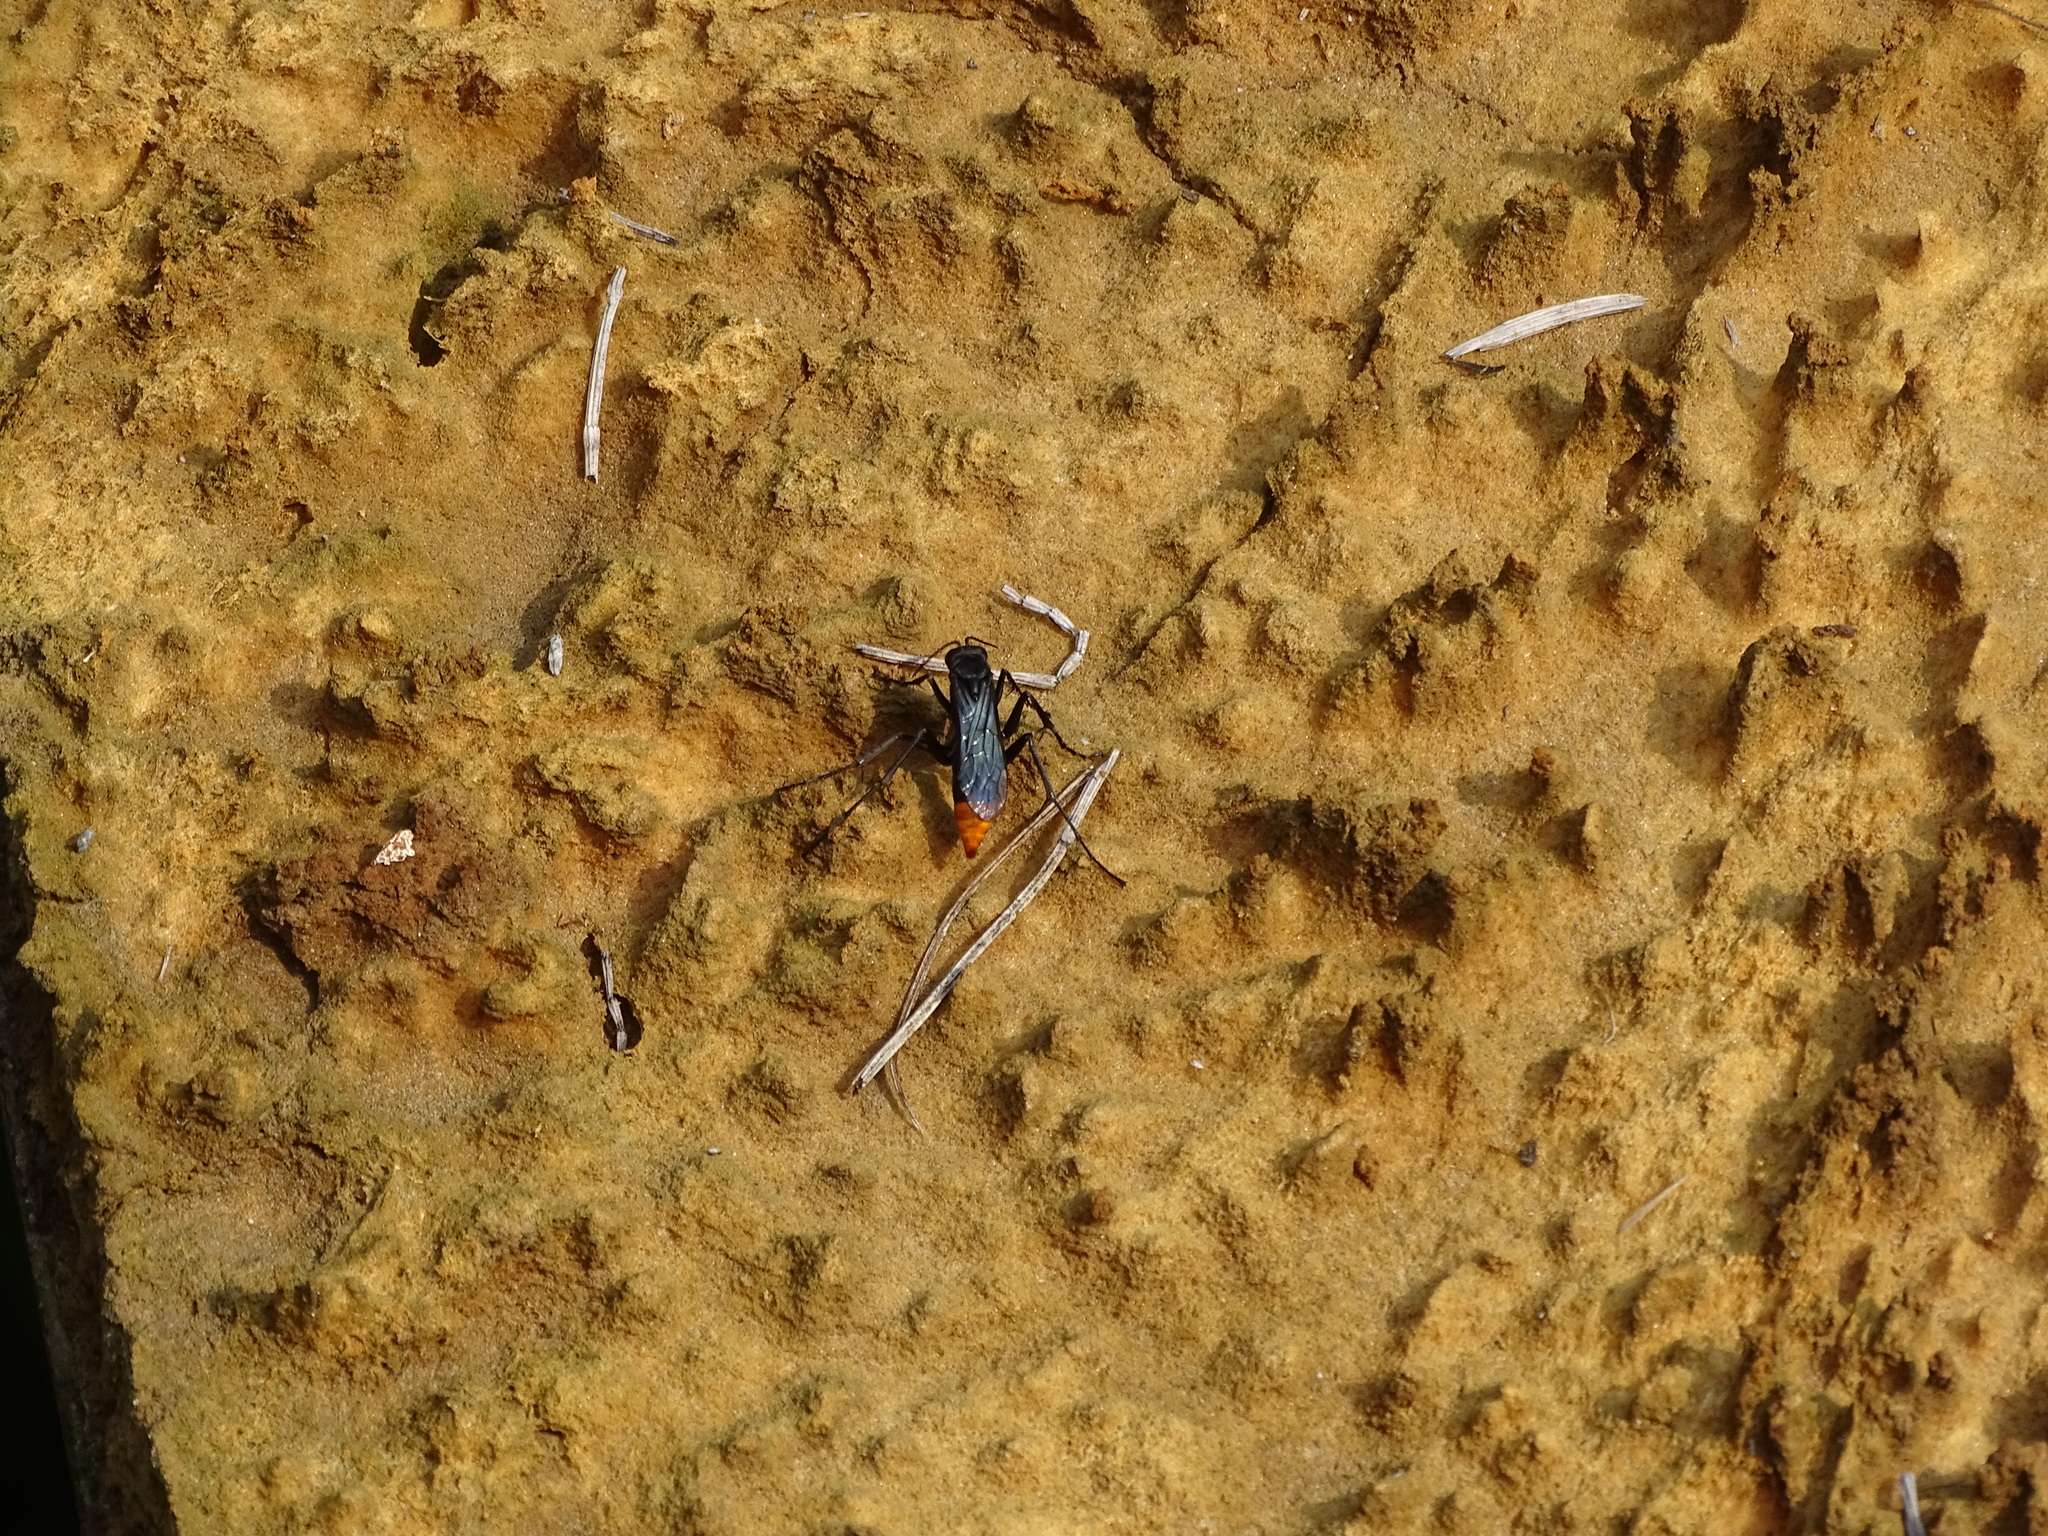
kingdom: Animalia
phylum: Arthropoda
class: Insecta
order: Hymenoptera
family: Pompilidae
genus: Tachypompilus
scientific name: Tachypompilus analis
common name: Spider wasp
